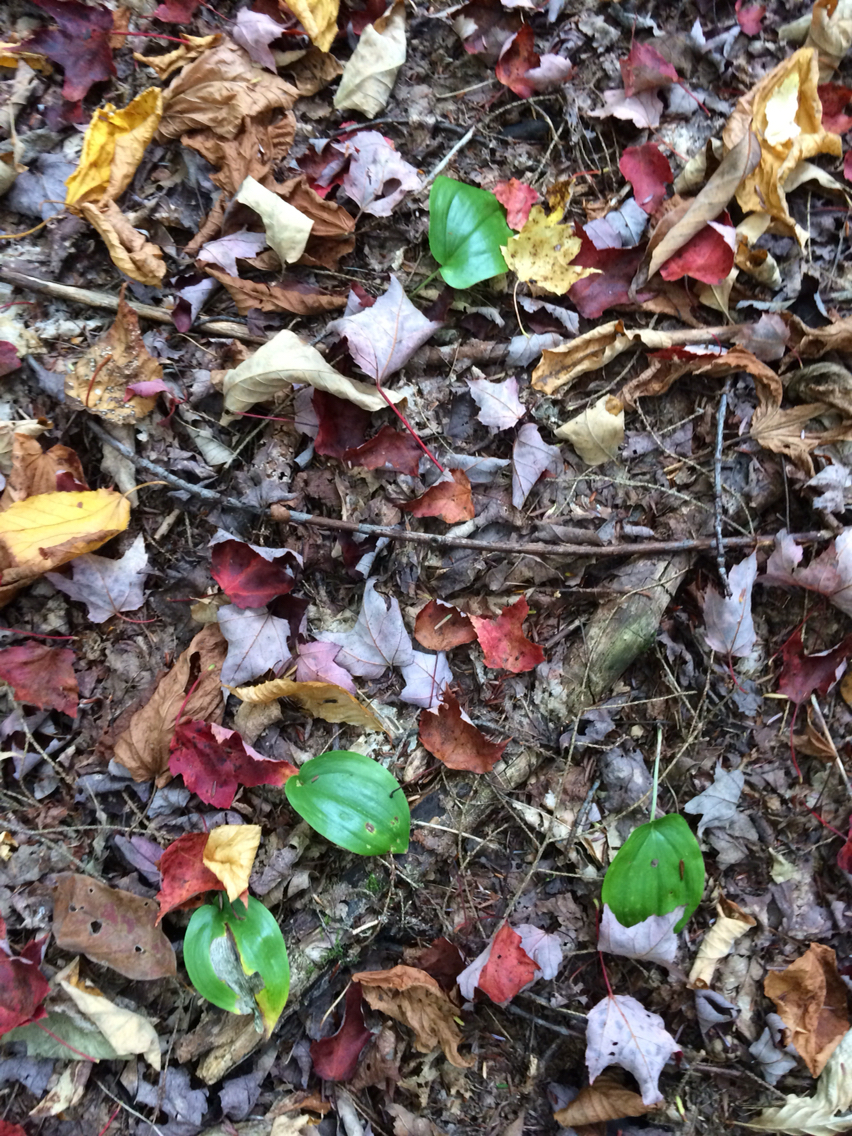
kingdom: Plantae
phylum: Tracheophyta
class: Liliopsida
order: Asparagales
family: Asparagaceae
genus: Maianthemum
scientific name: Maianthemum canadense
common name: False lily-of-the-valley
